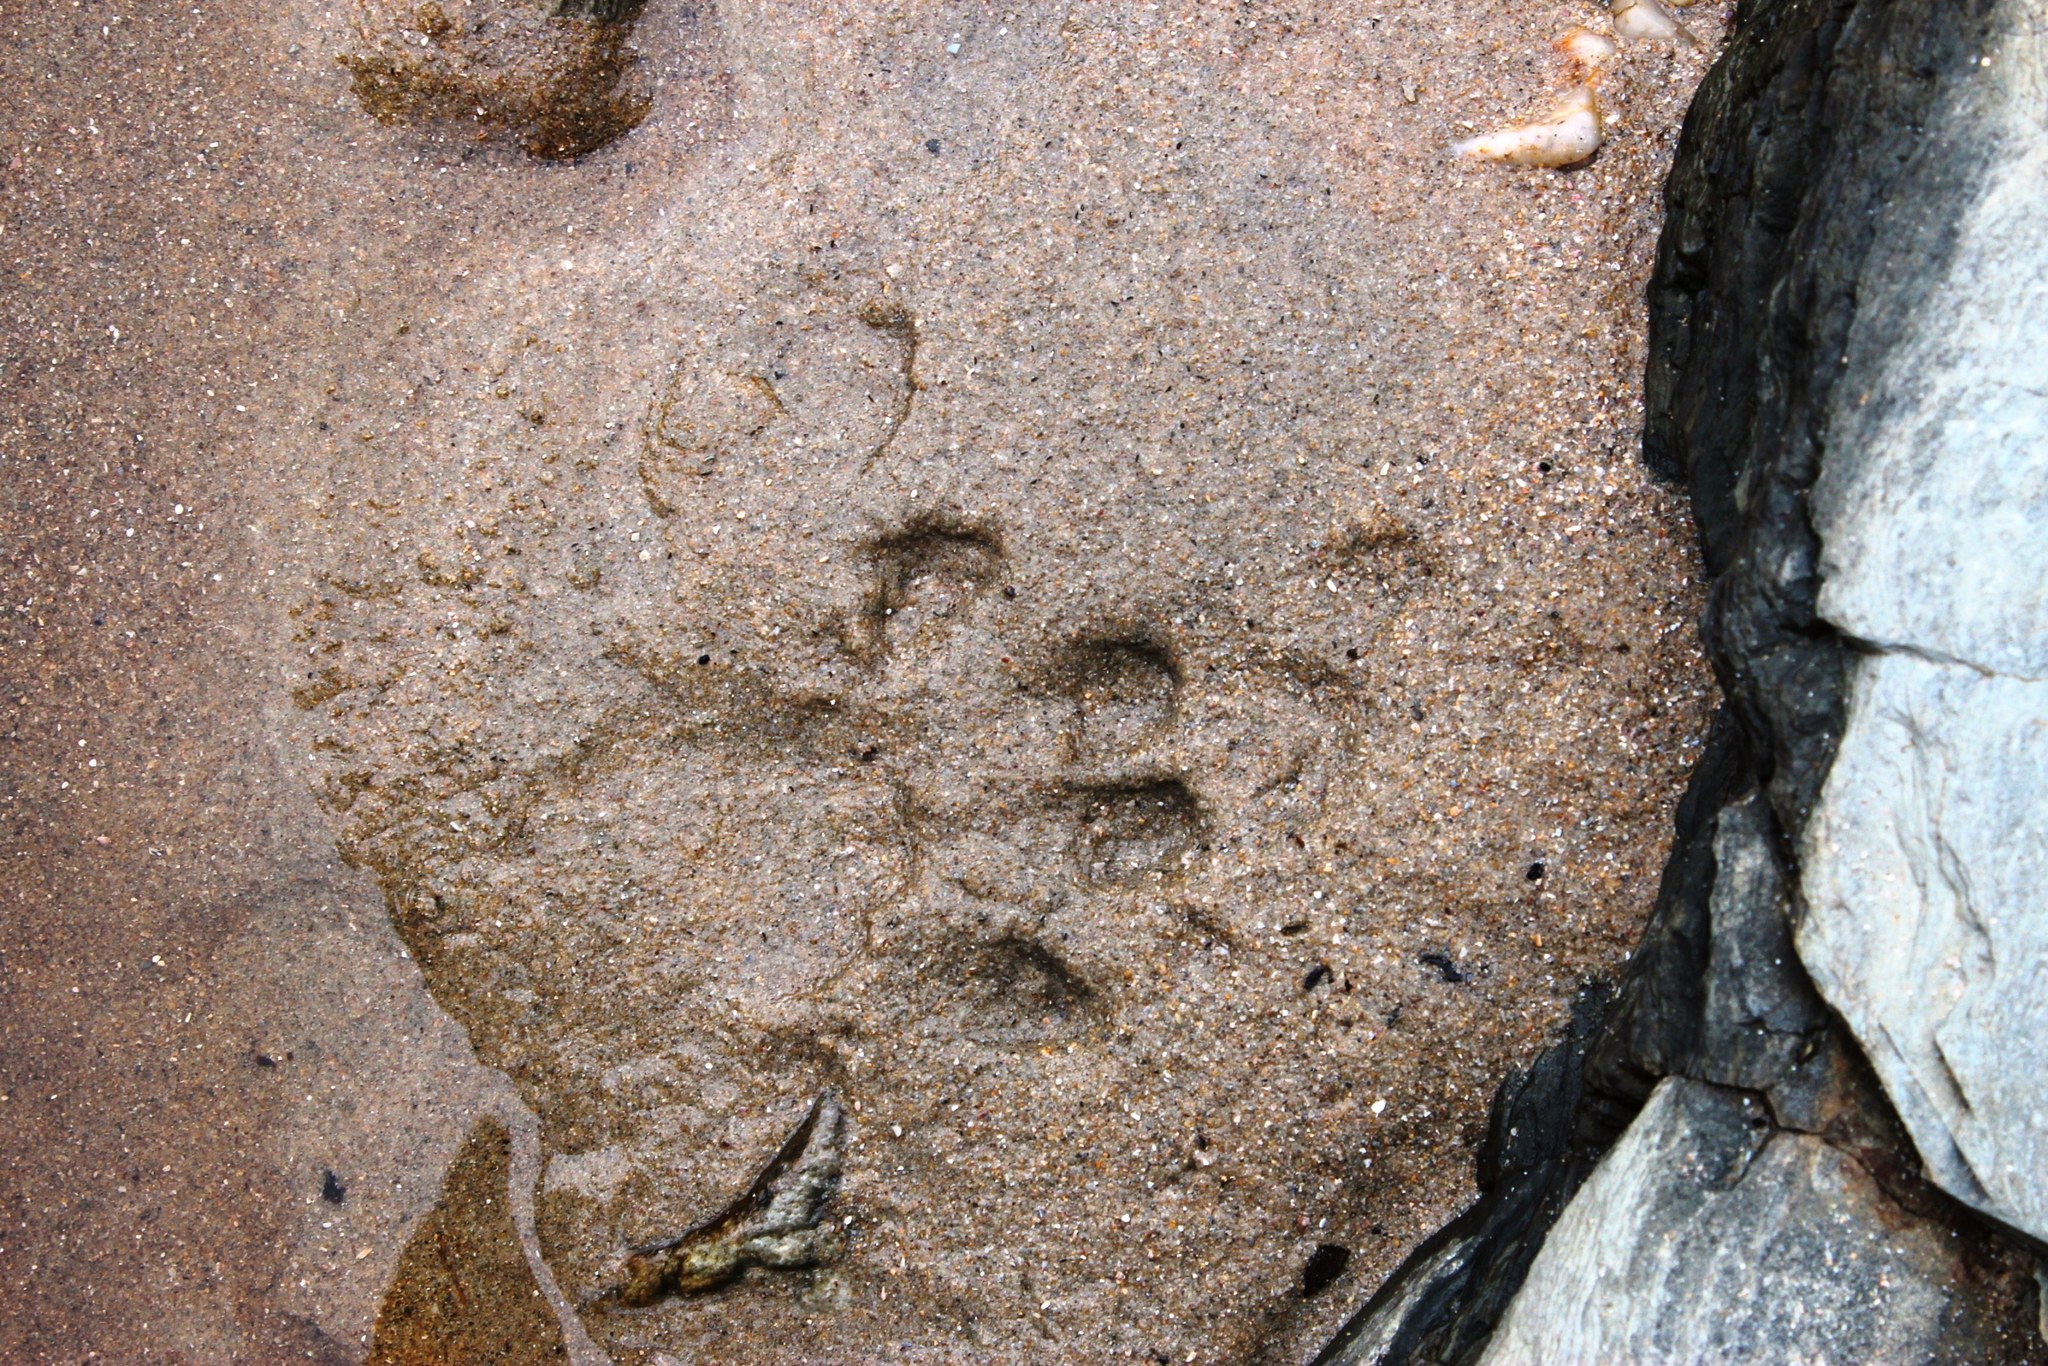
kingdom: Animalia
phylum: Chordata
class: Mammalia
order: Carnivora
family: Mustelidae
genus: Aonyx
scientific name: Aonyx capensis
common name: African clawless otter
